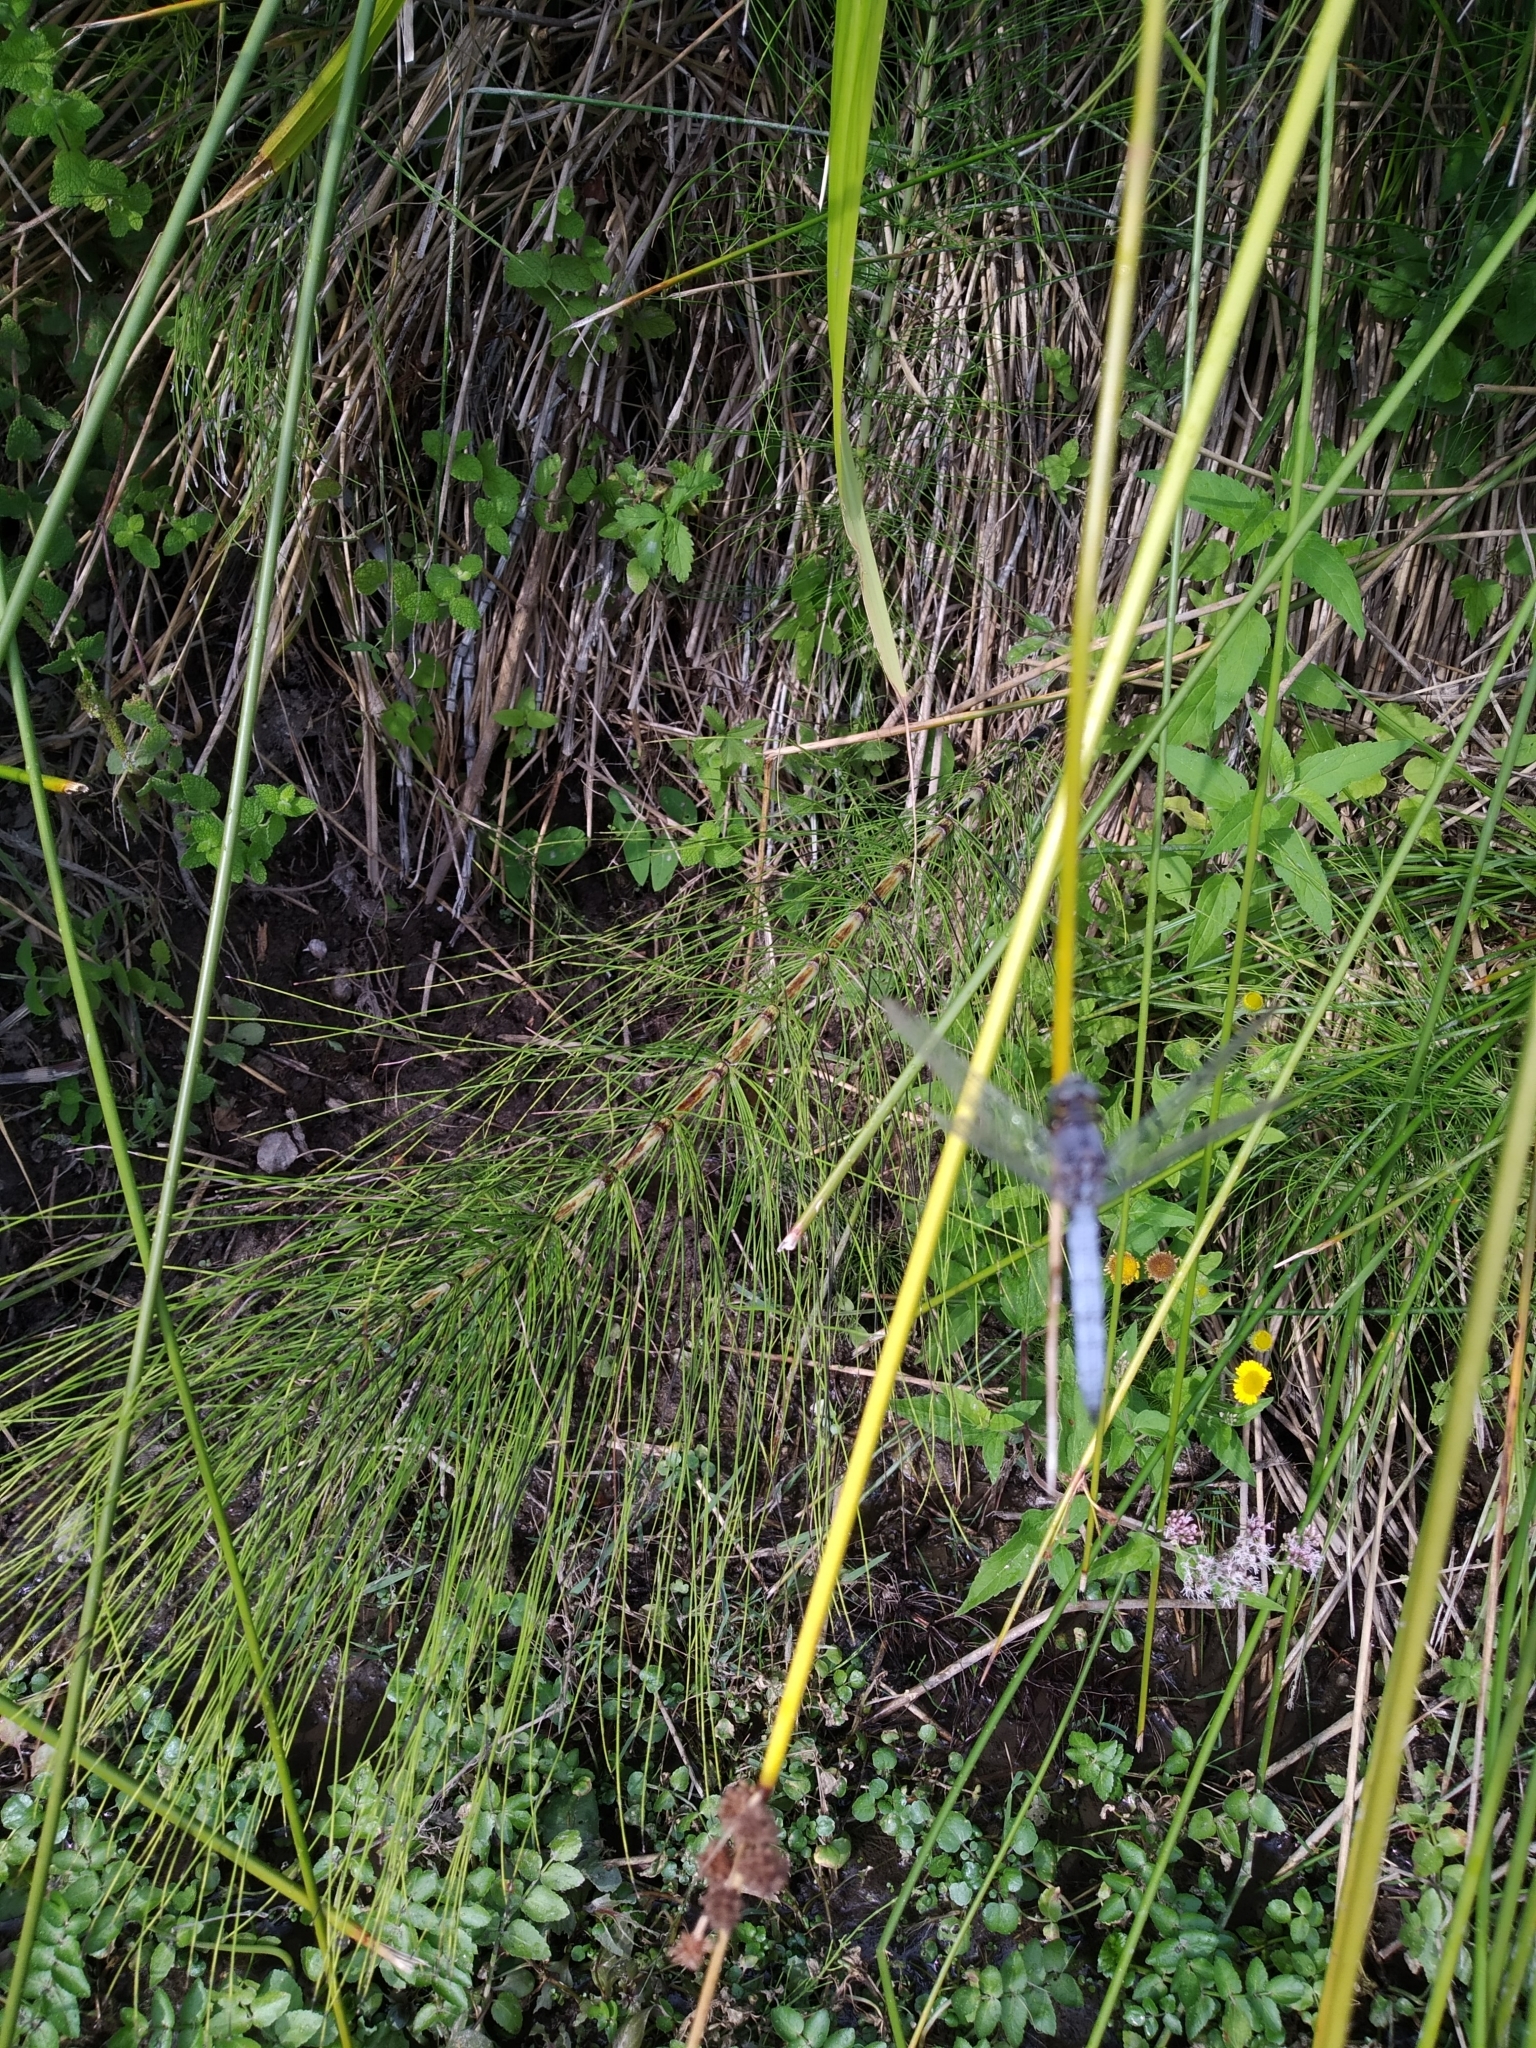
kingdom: Animalia
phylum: Arthropoda
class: Insecta
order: Odonata
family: Libellulidae
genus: Orthetrum
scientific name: Orthetrum coerulescens
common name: Keeled skimmer
